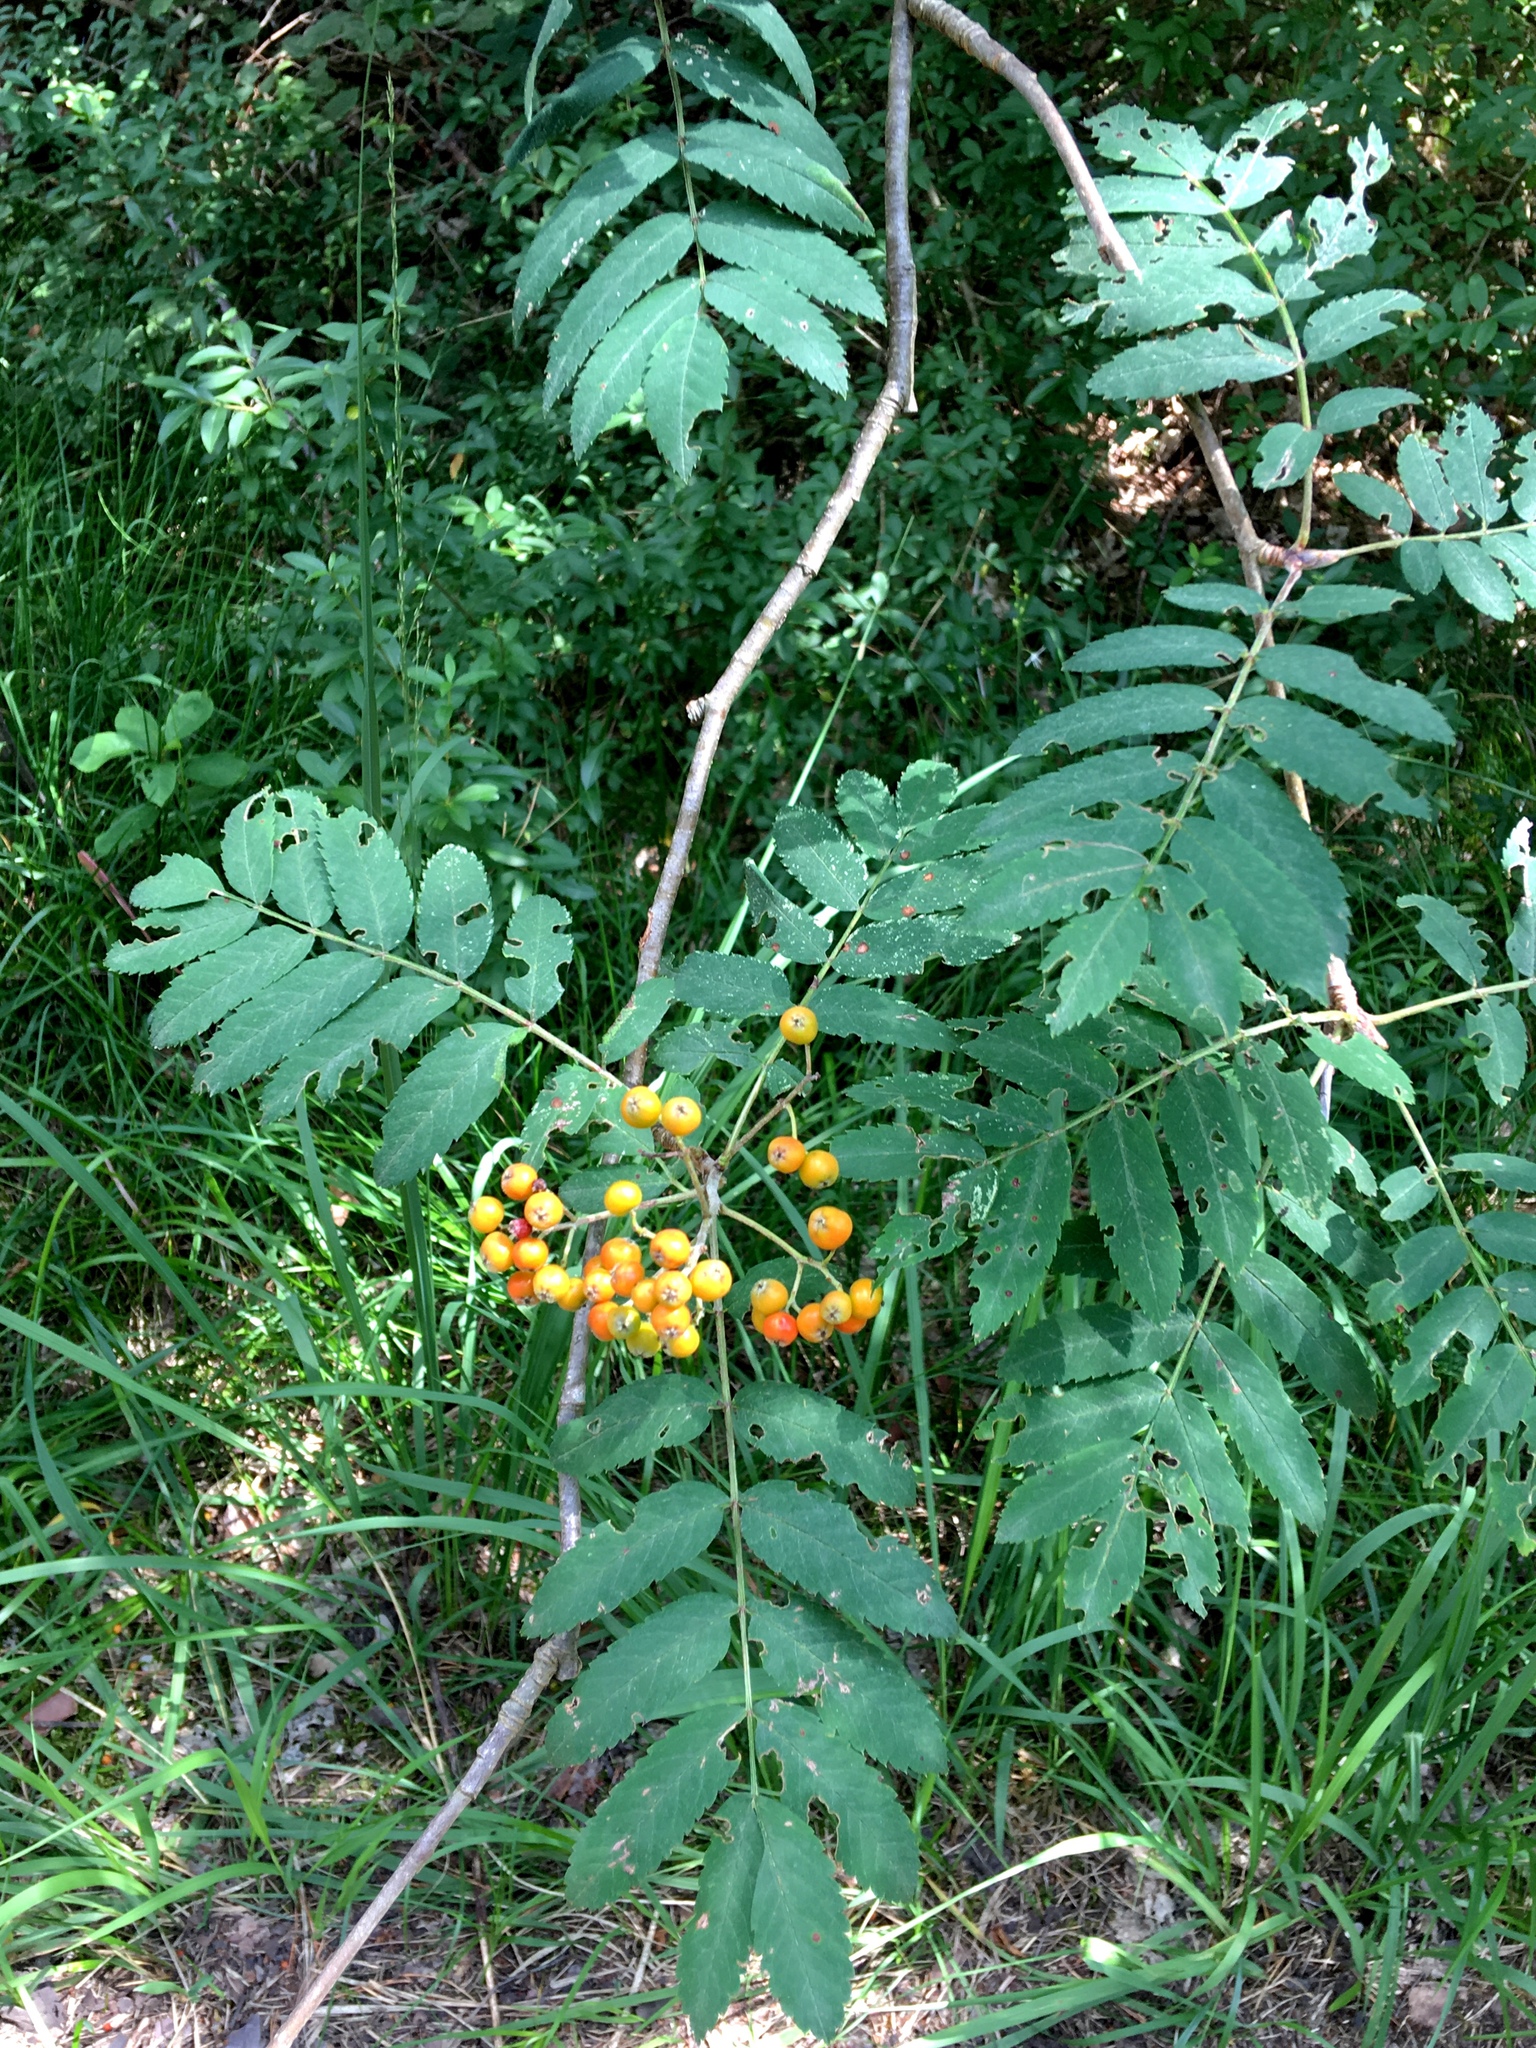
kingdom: Plantae
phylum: Tracheophyta
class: Magnoliopsida
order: Rosales
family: Rosaceae
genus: Sorbus
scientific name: Sorbus aucuparia
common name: Rowan
